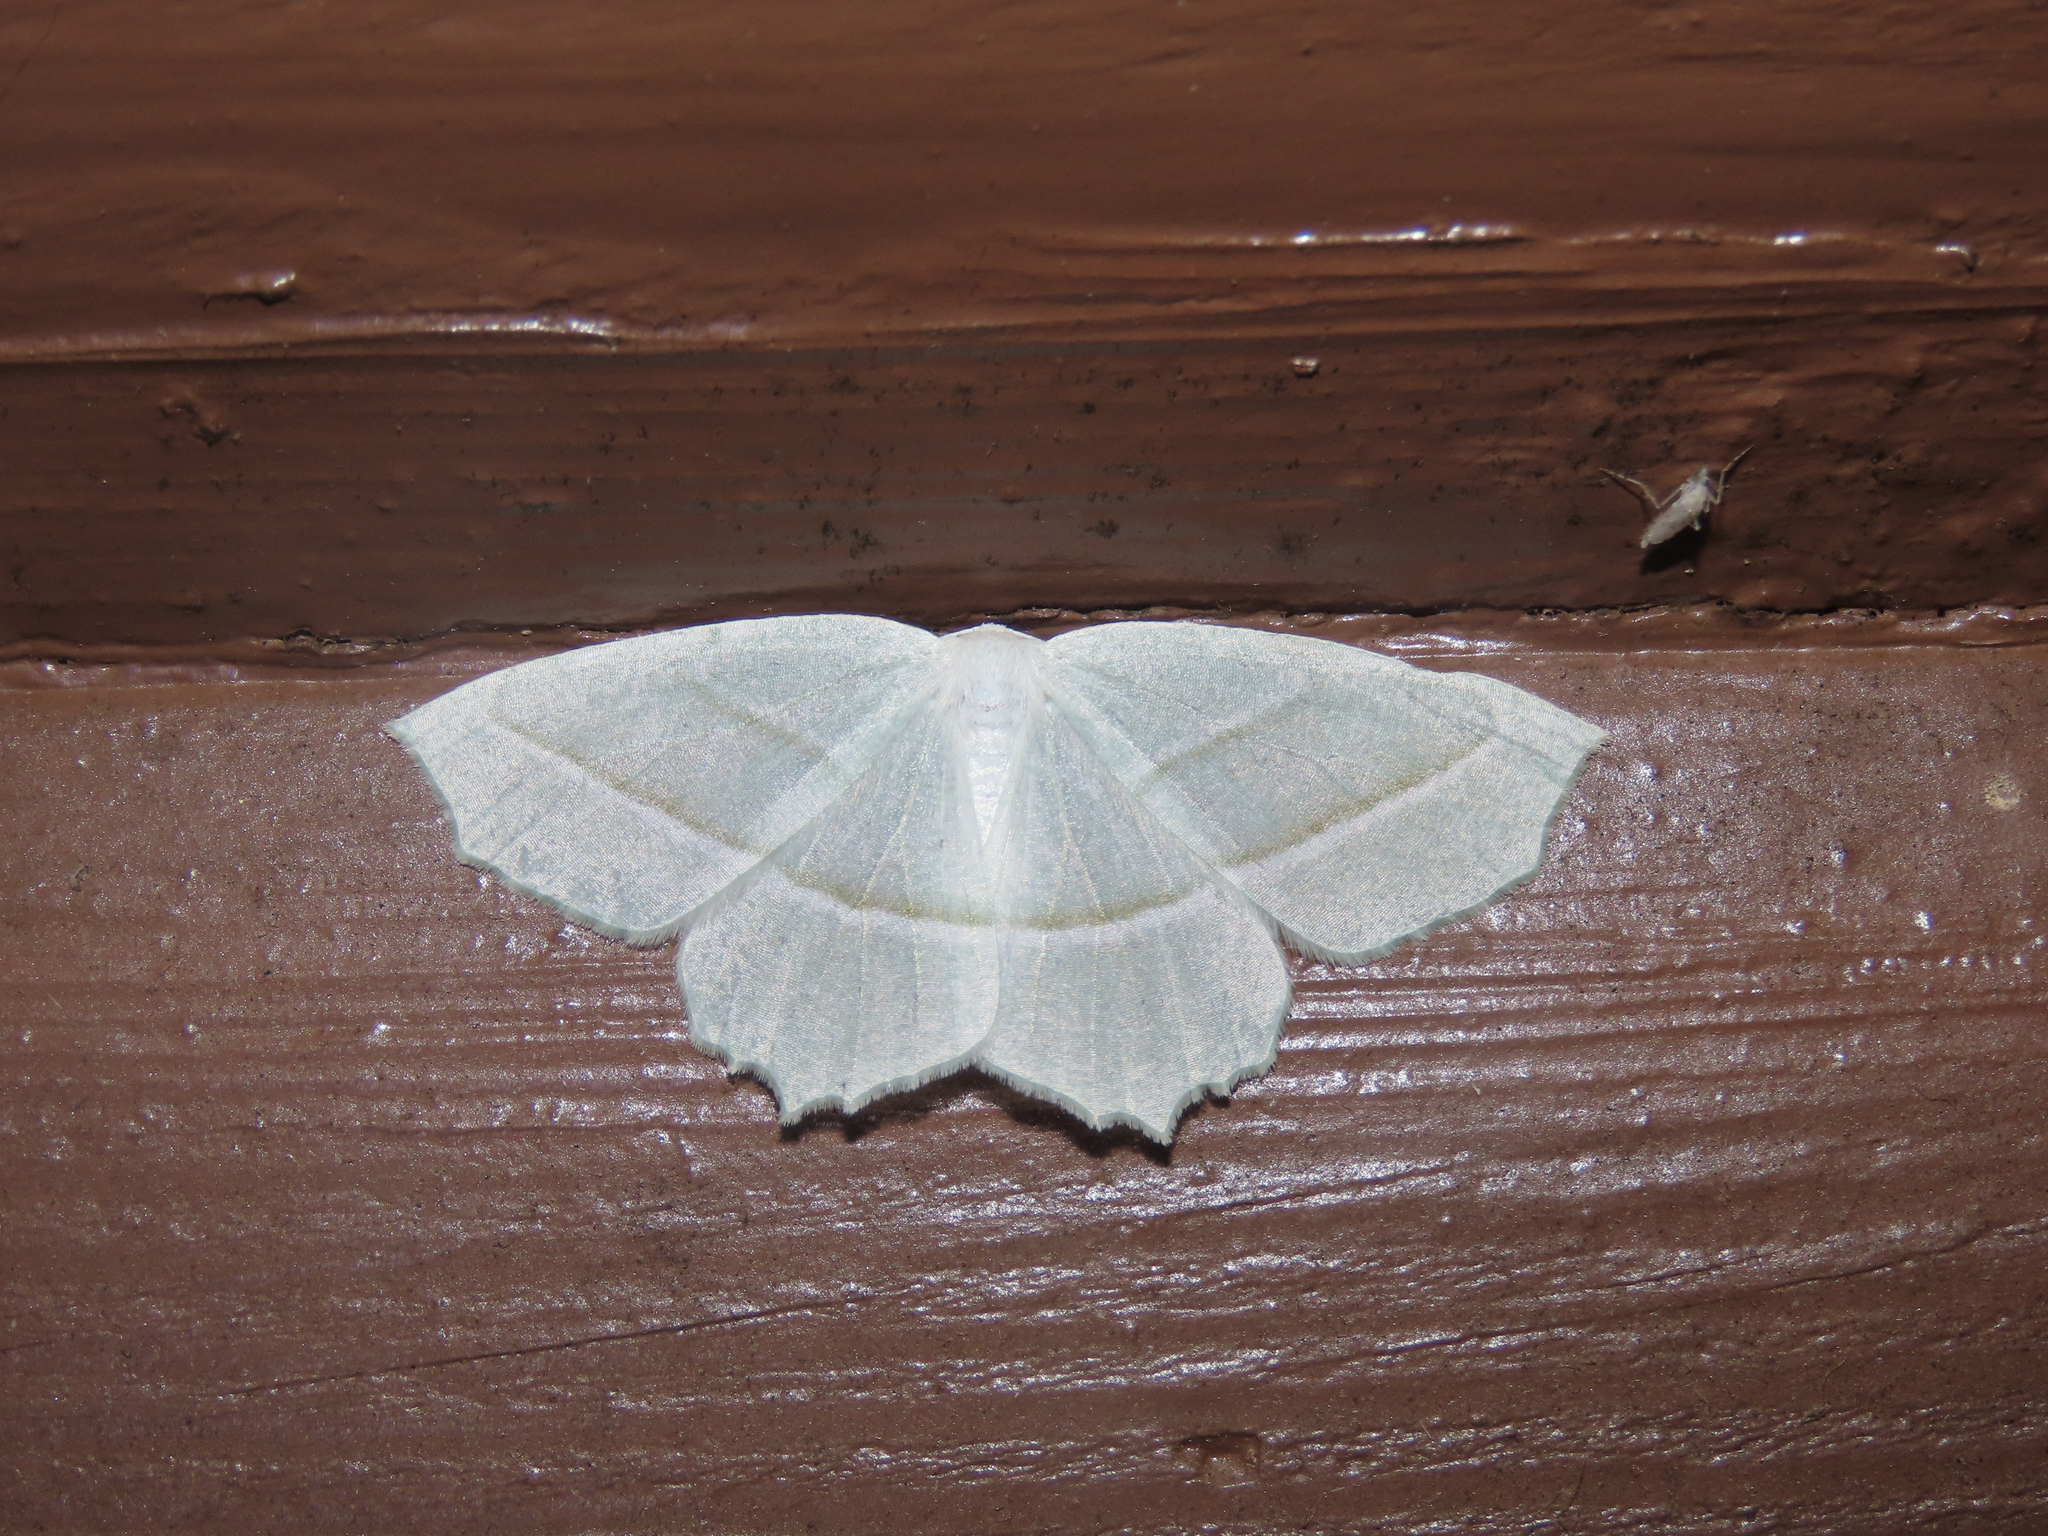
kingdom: Animalia
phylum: Arthropoda
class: Insecta
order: Lepidoptera
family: Geometridae
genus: Campaea
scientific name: Campaea perlata
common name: Fringed looper
